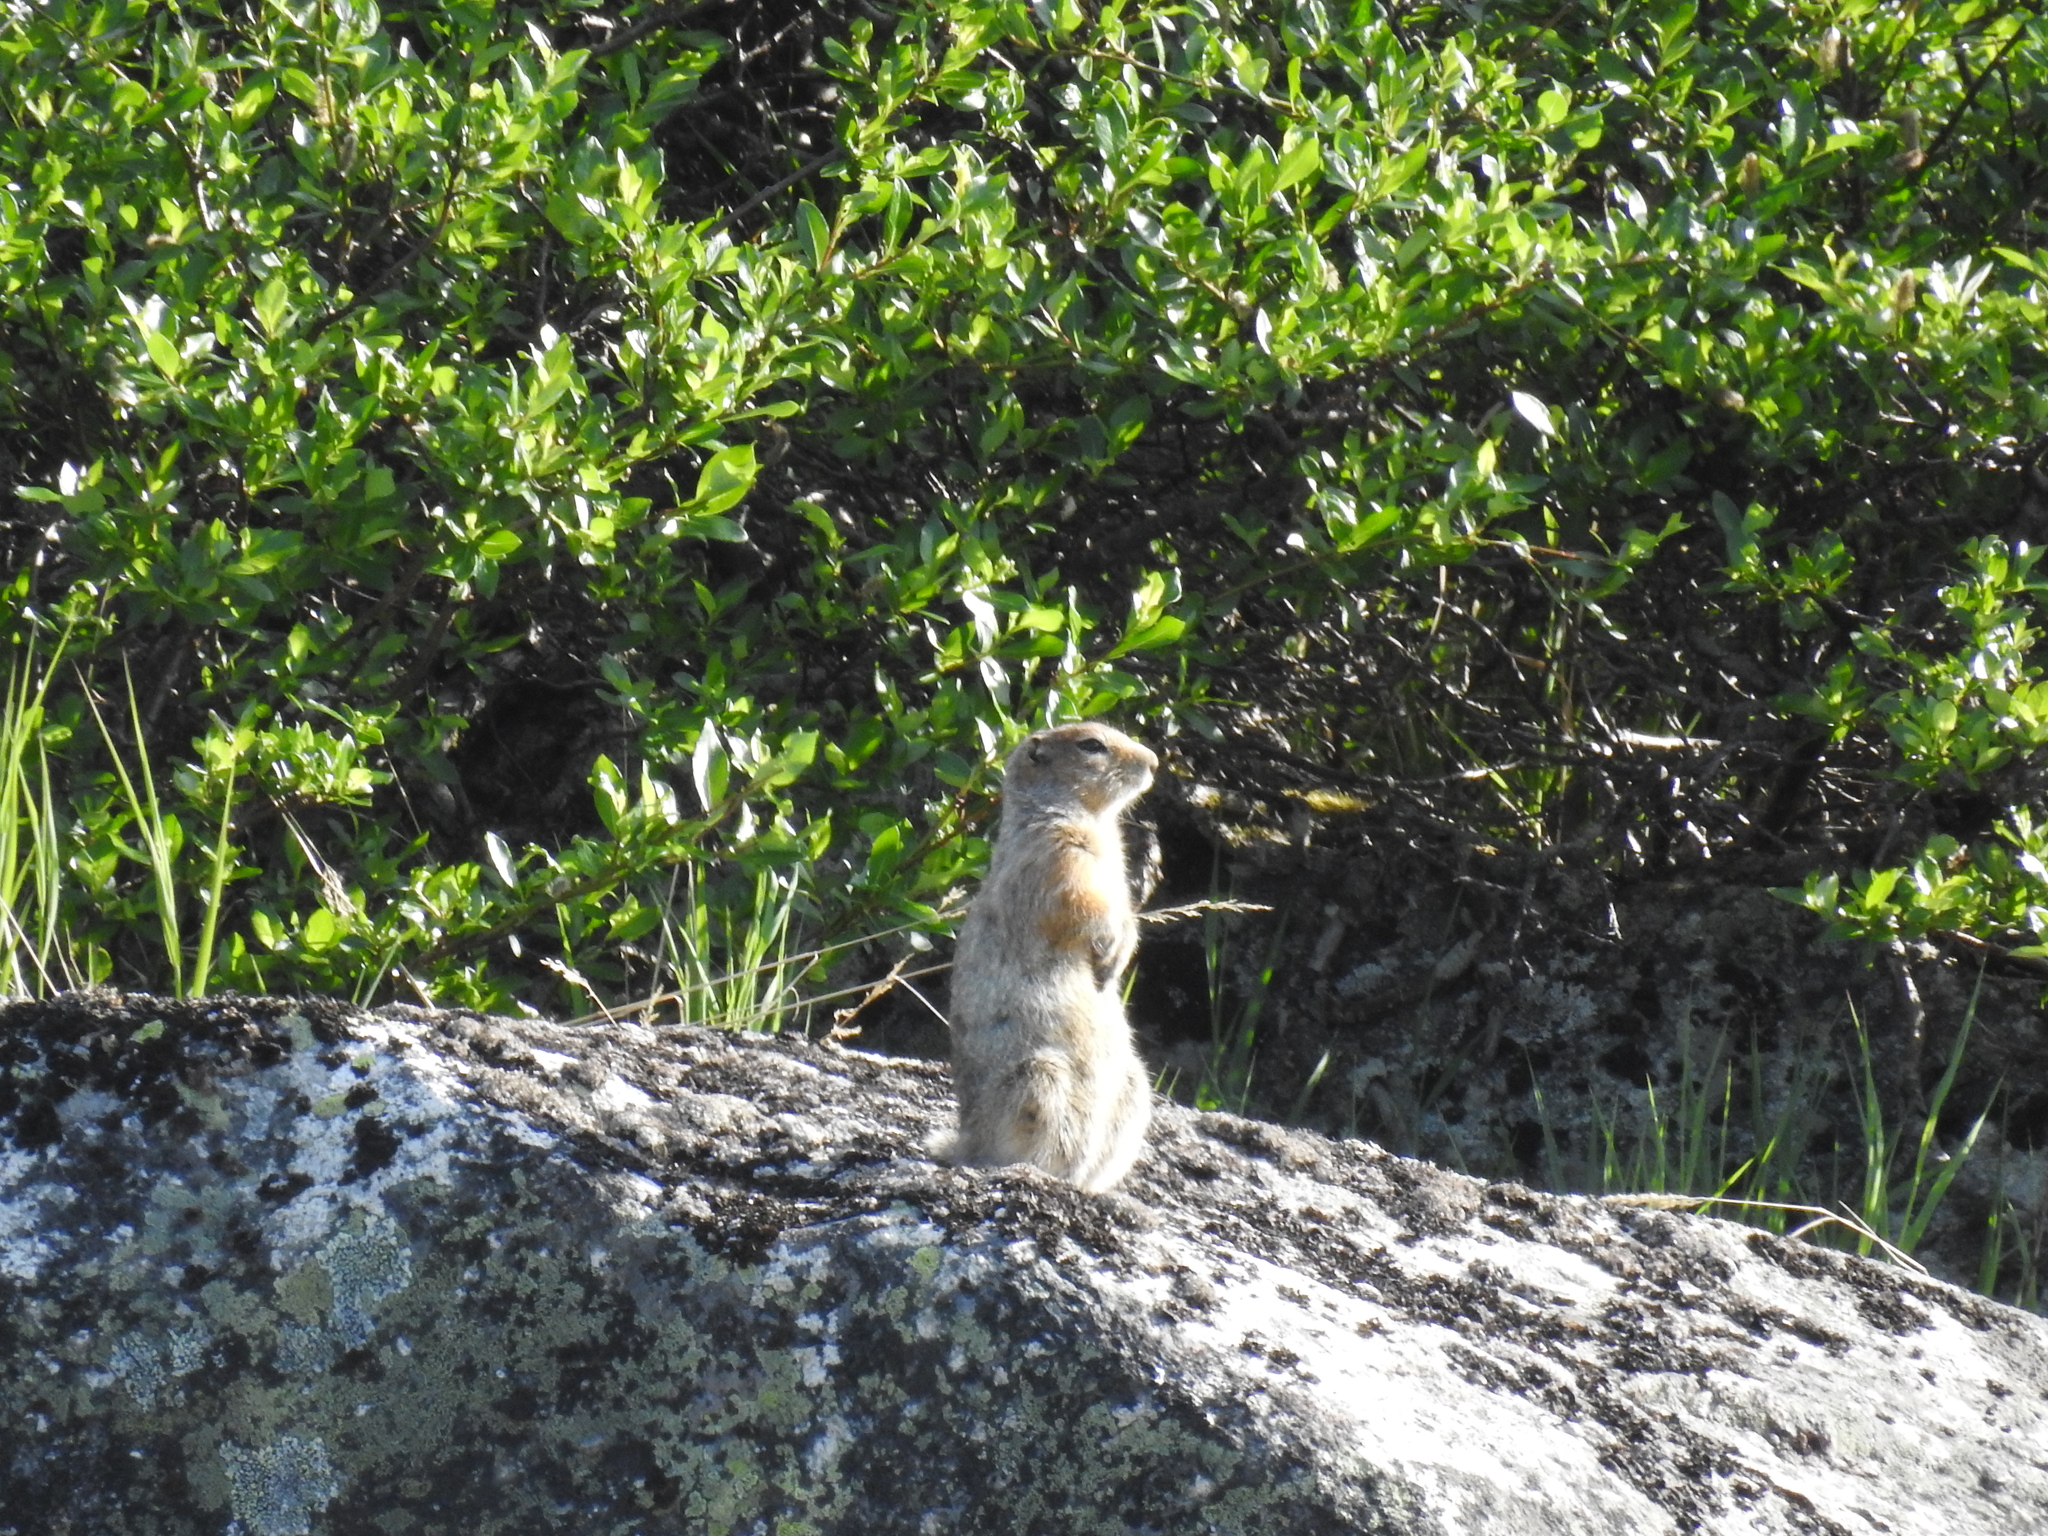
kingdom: Animalia
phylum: Chordata
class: Mammalia
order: Rodentia
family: Sciuridae
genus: Urocitellus
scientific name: Urocitellus parryii
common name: Arctic ground squirrel
